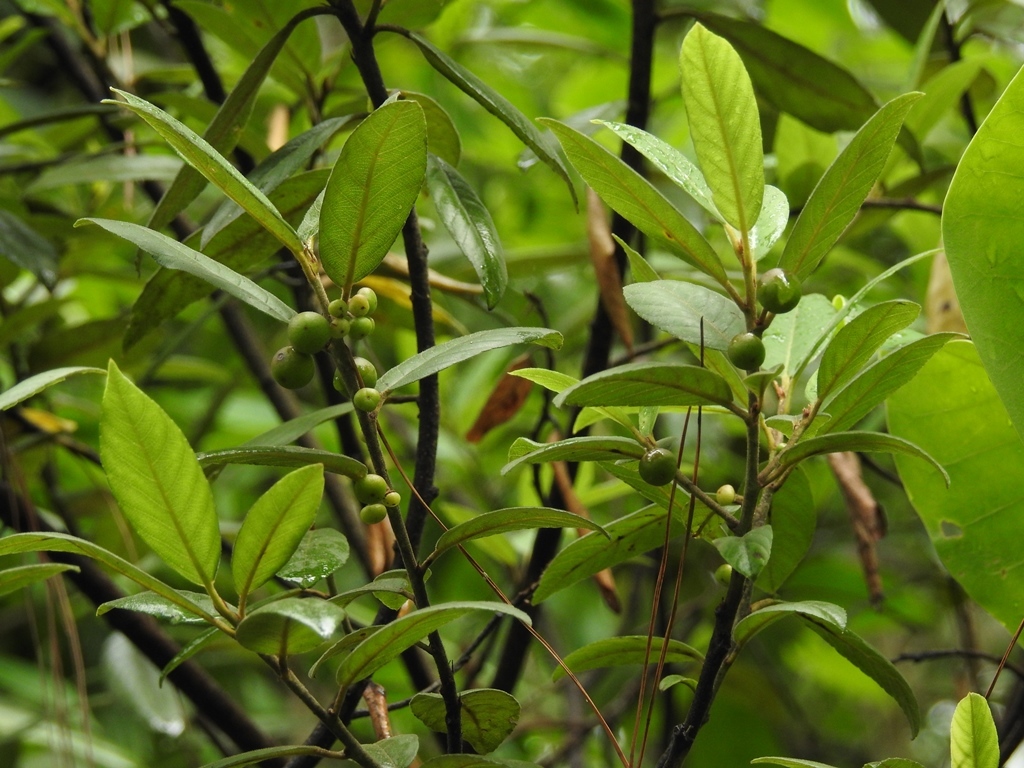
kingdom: Plantae
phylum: Tracheophyta
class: Magnoliopsida
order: Rosales
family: Rhamnaceae
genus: Frangula
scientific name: Frangula mucronata
